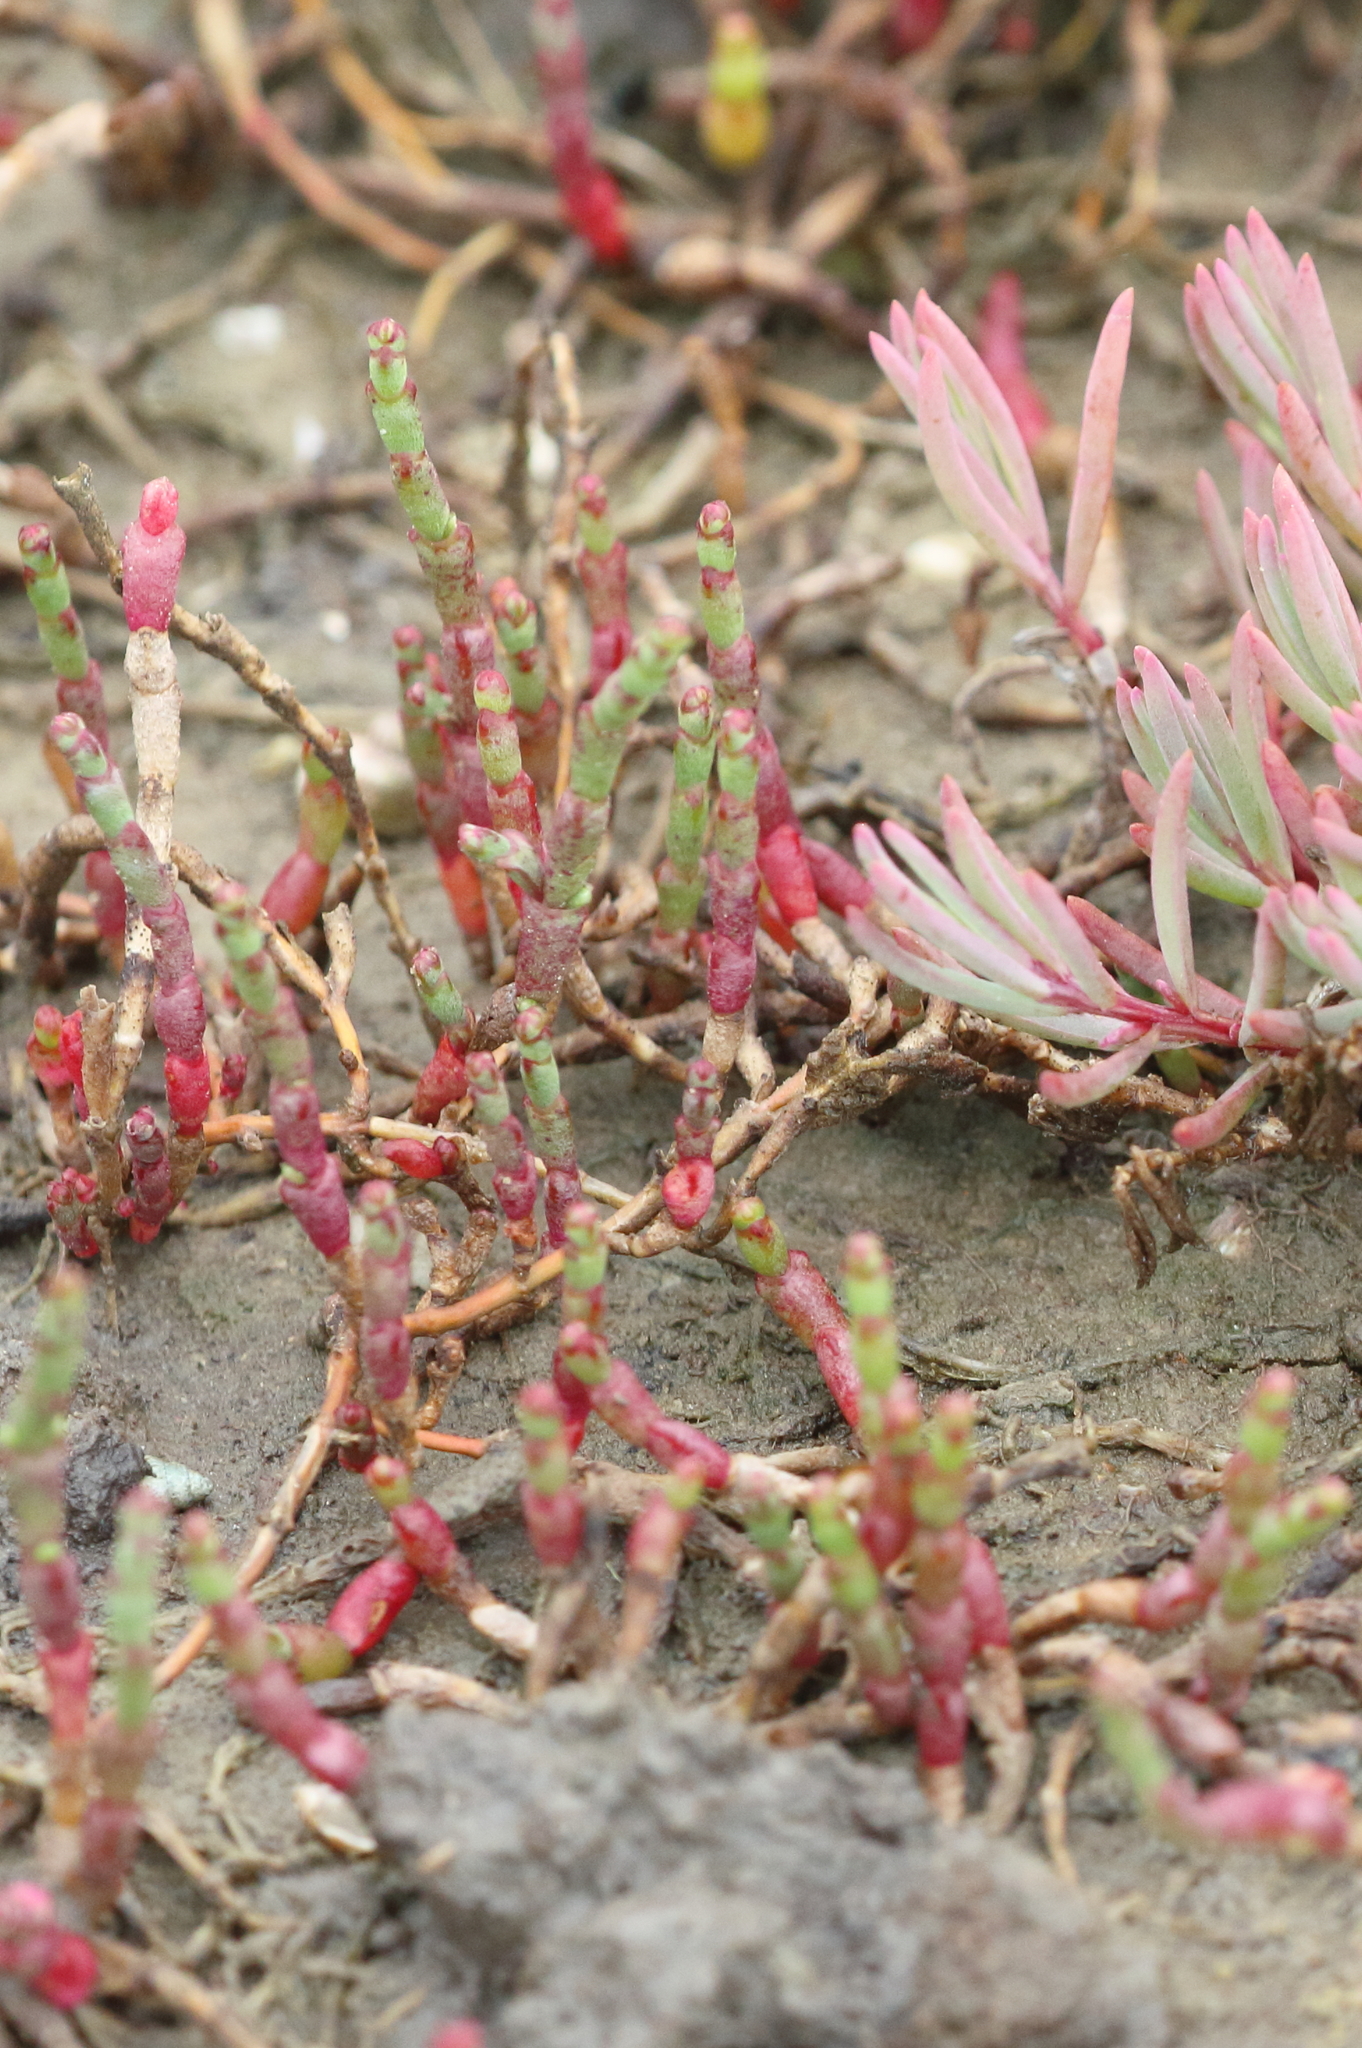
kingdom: Plantae
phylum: Tracheophyta
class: Magnoliopsida
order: Caryophyllales
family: Amaranthaceae
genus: Salicornia
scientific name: Salicornia quinqueflora
